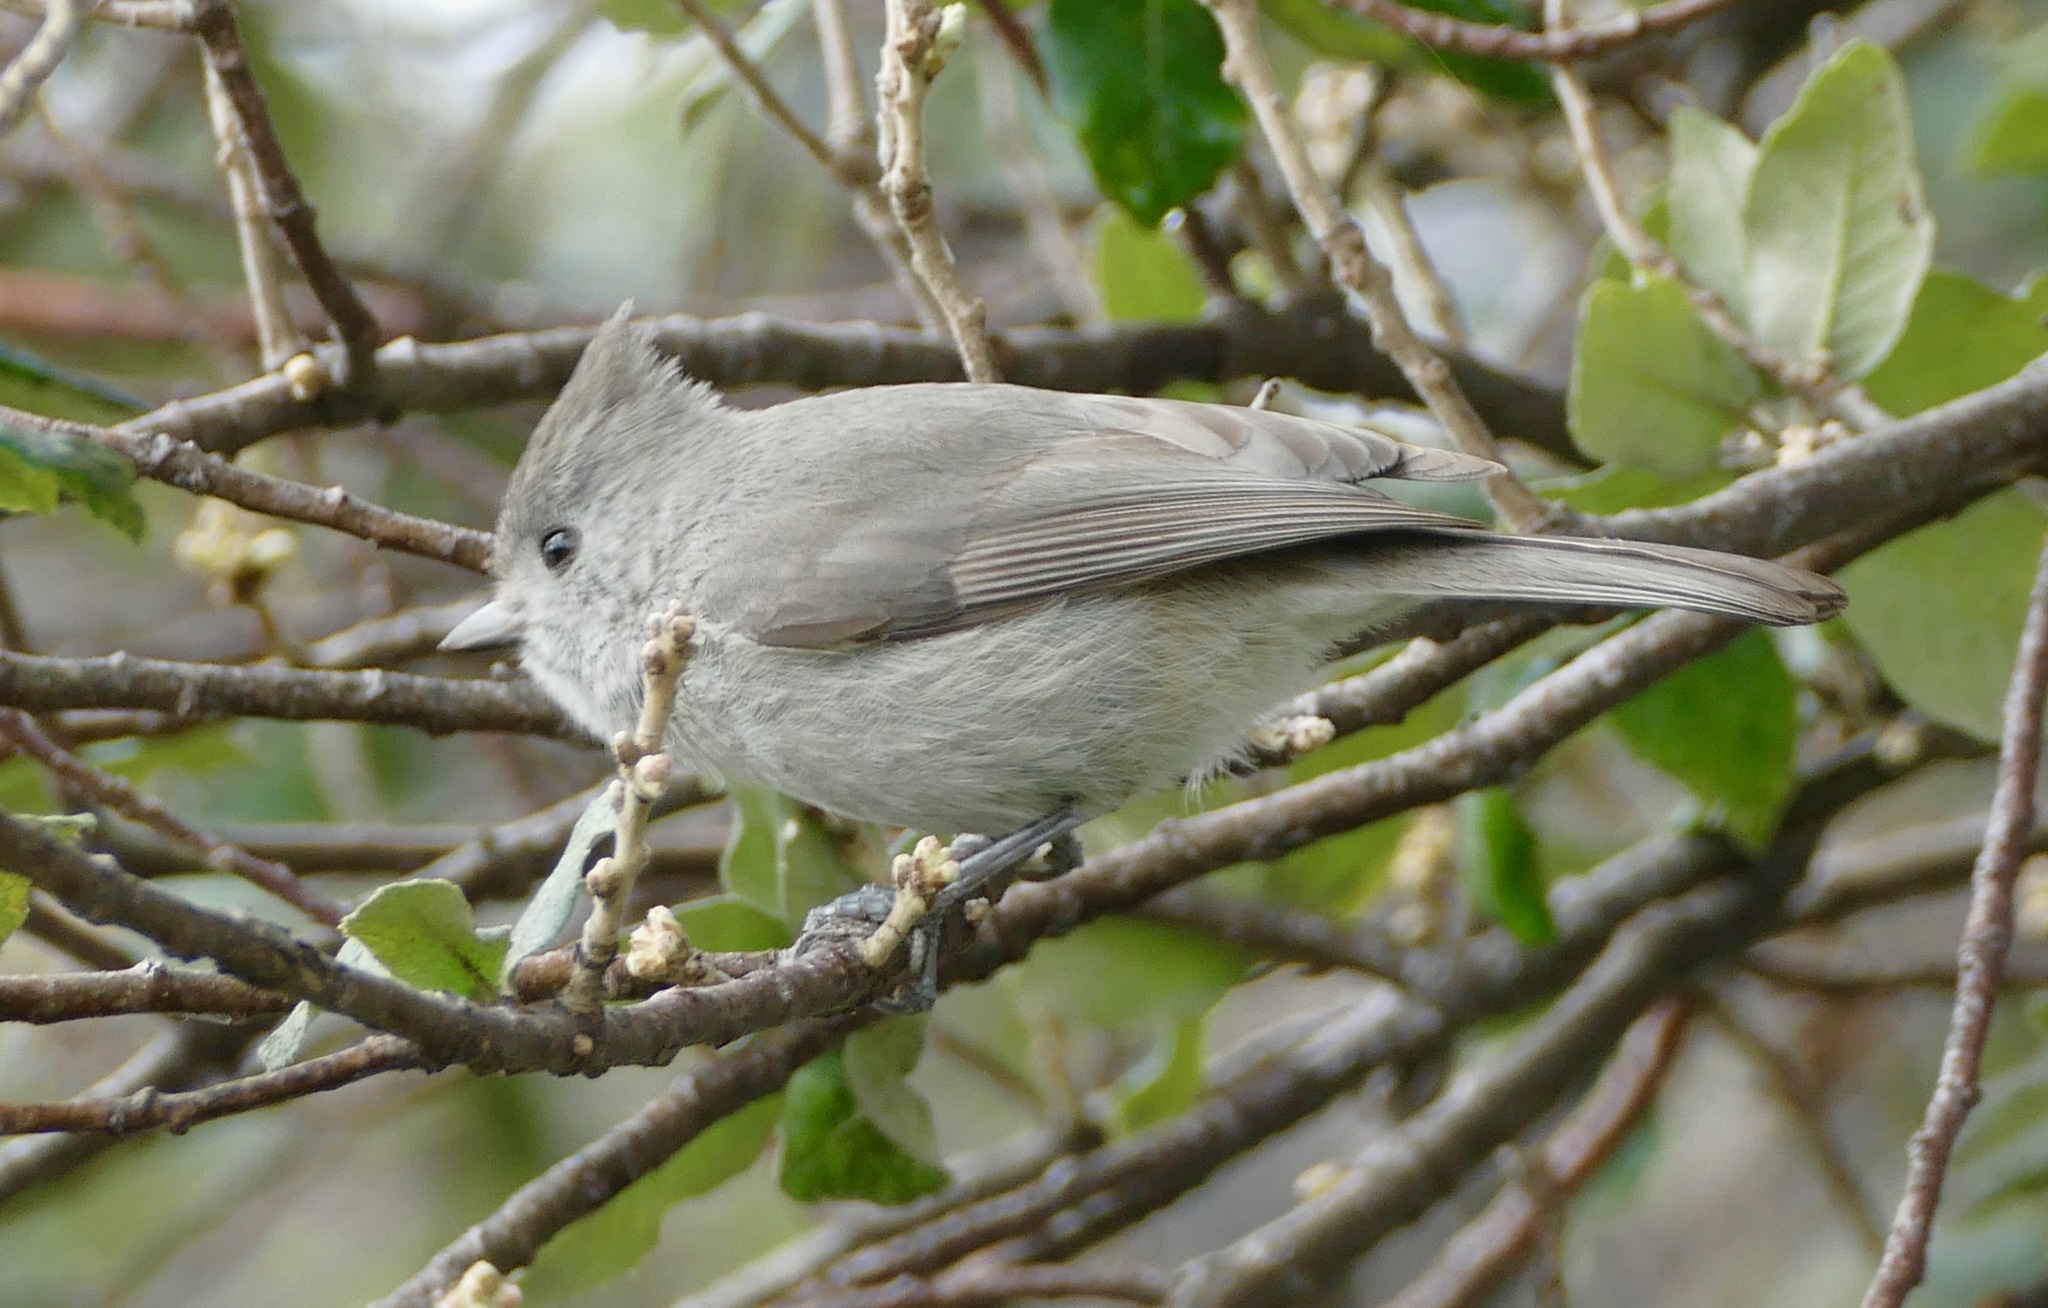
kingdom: Animalia
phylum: Chordata
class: Aves
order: Passeriformes
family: Paridae
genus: Baeolophus
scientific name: Baeolophus inornatus
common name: Oak titmouse
